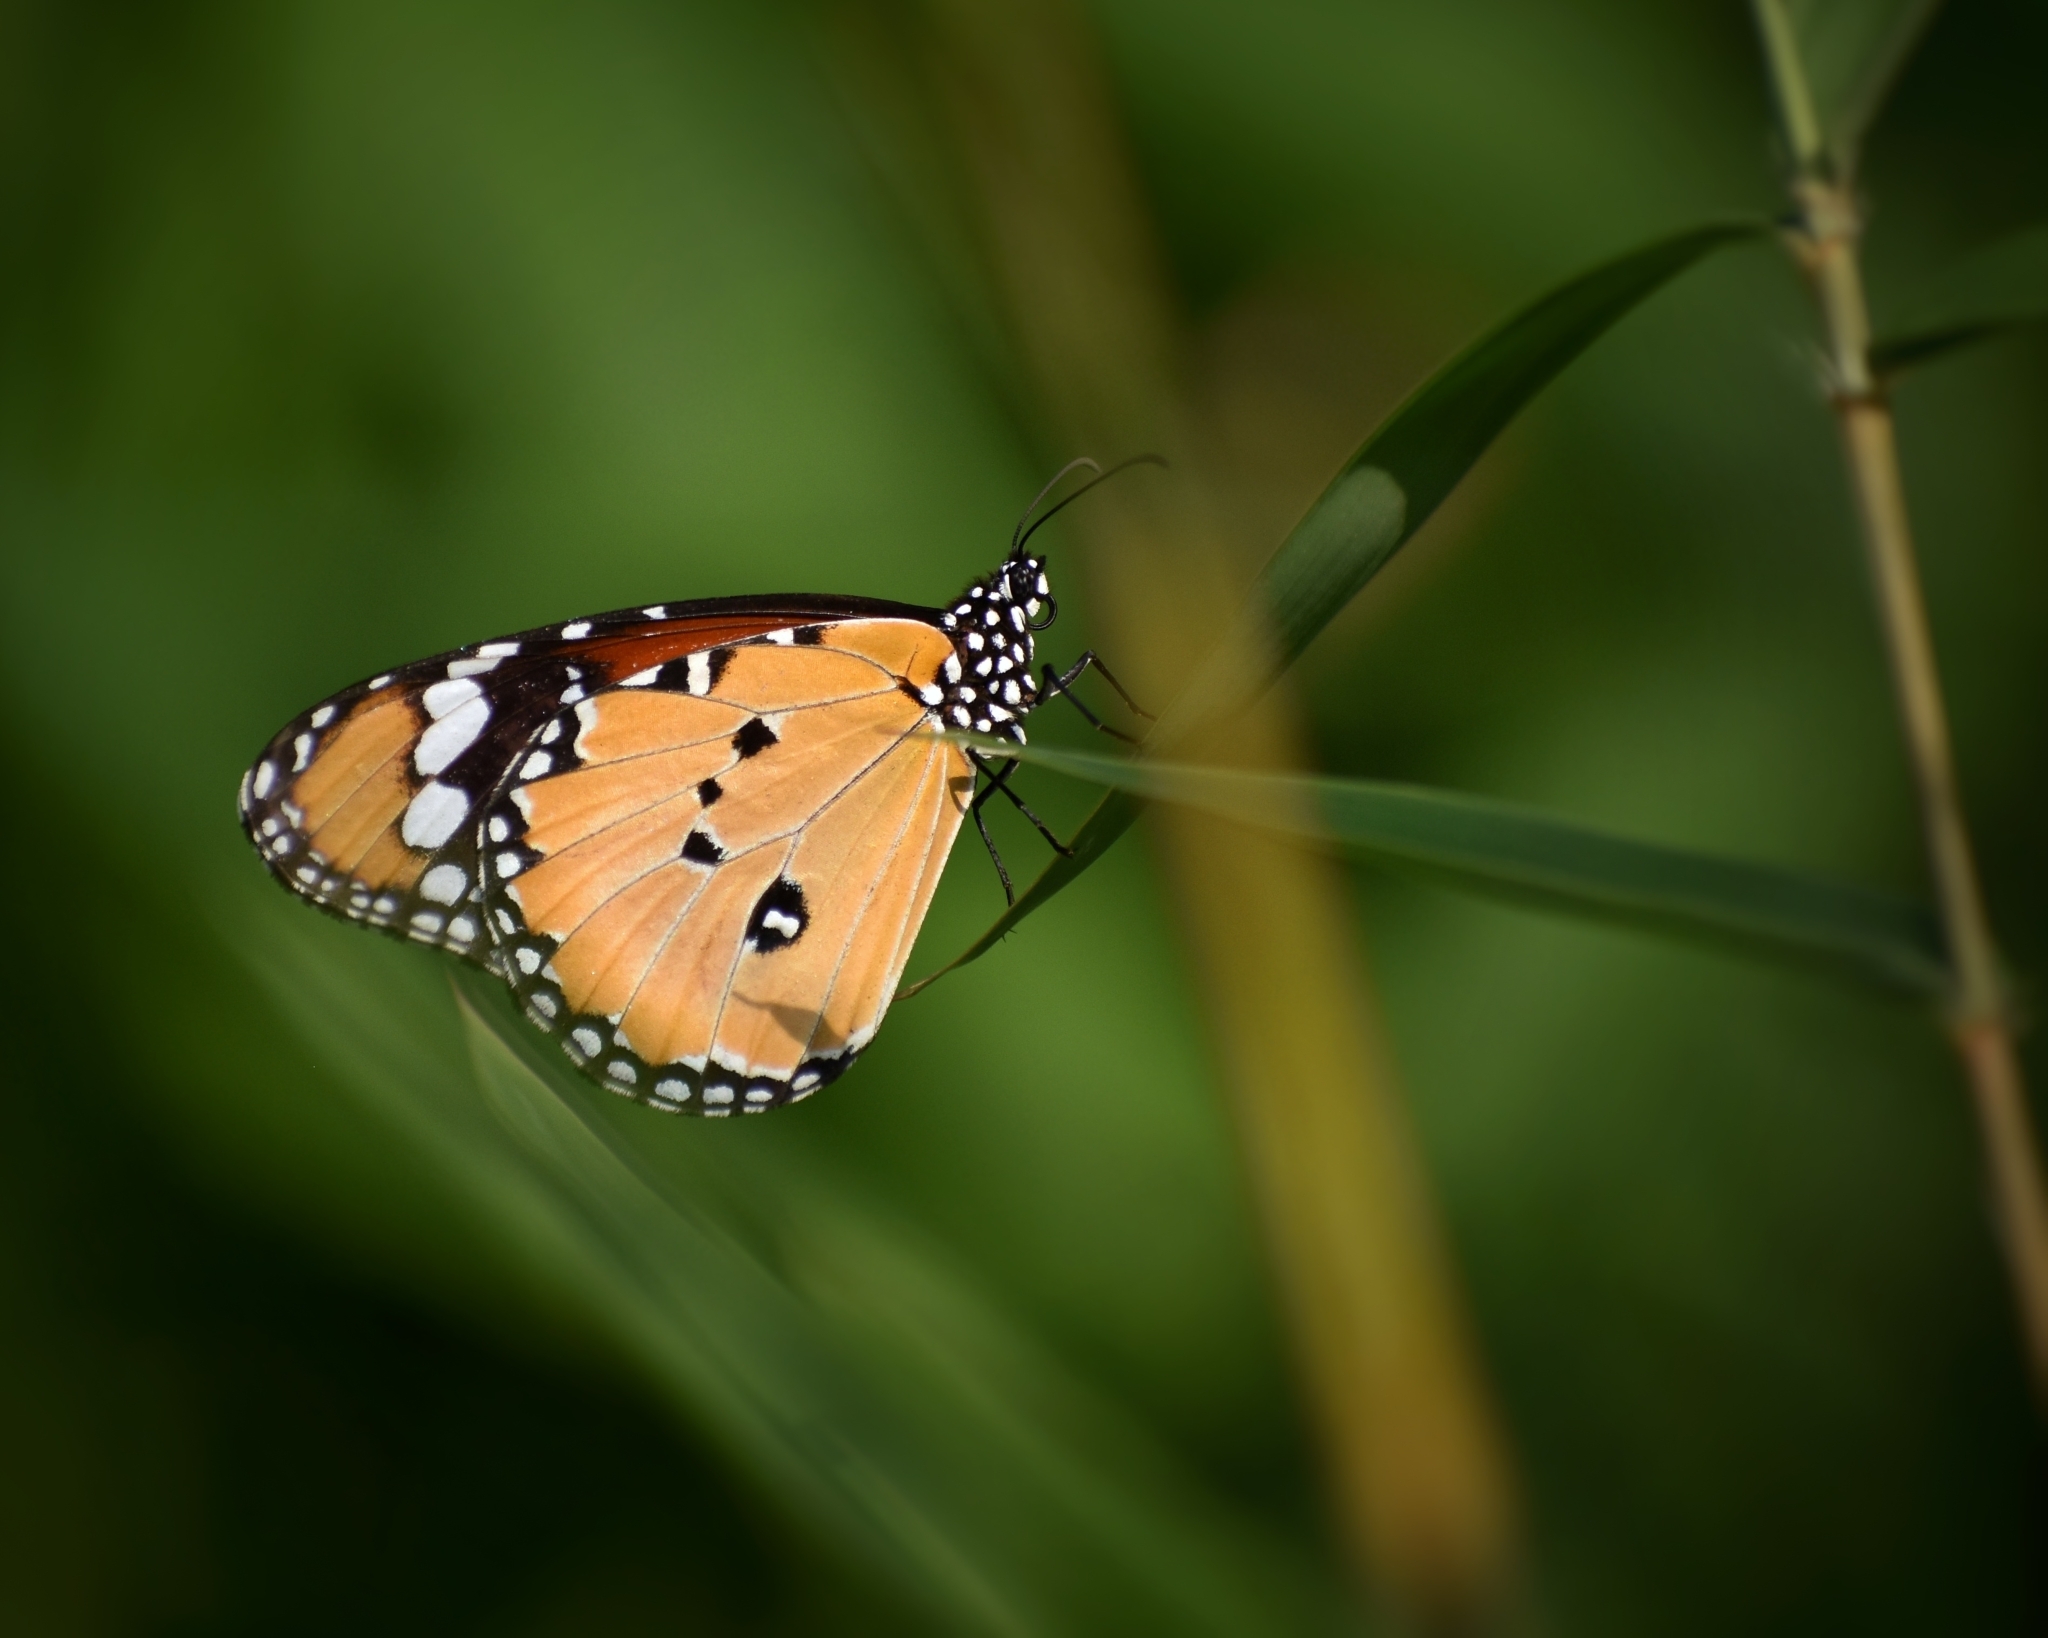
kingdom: Animalia
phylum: Arthropoda
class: Insecta
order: Lepidoptera
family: Nymphalidae
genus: Danaus
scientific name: Danaus chrysippus
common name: Plain tiger
